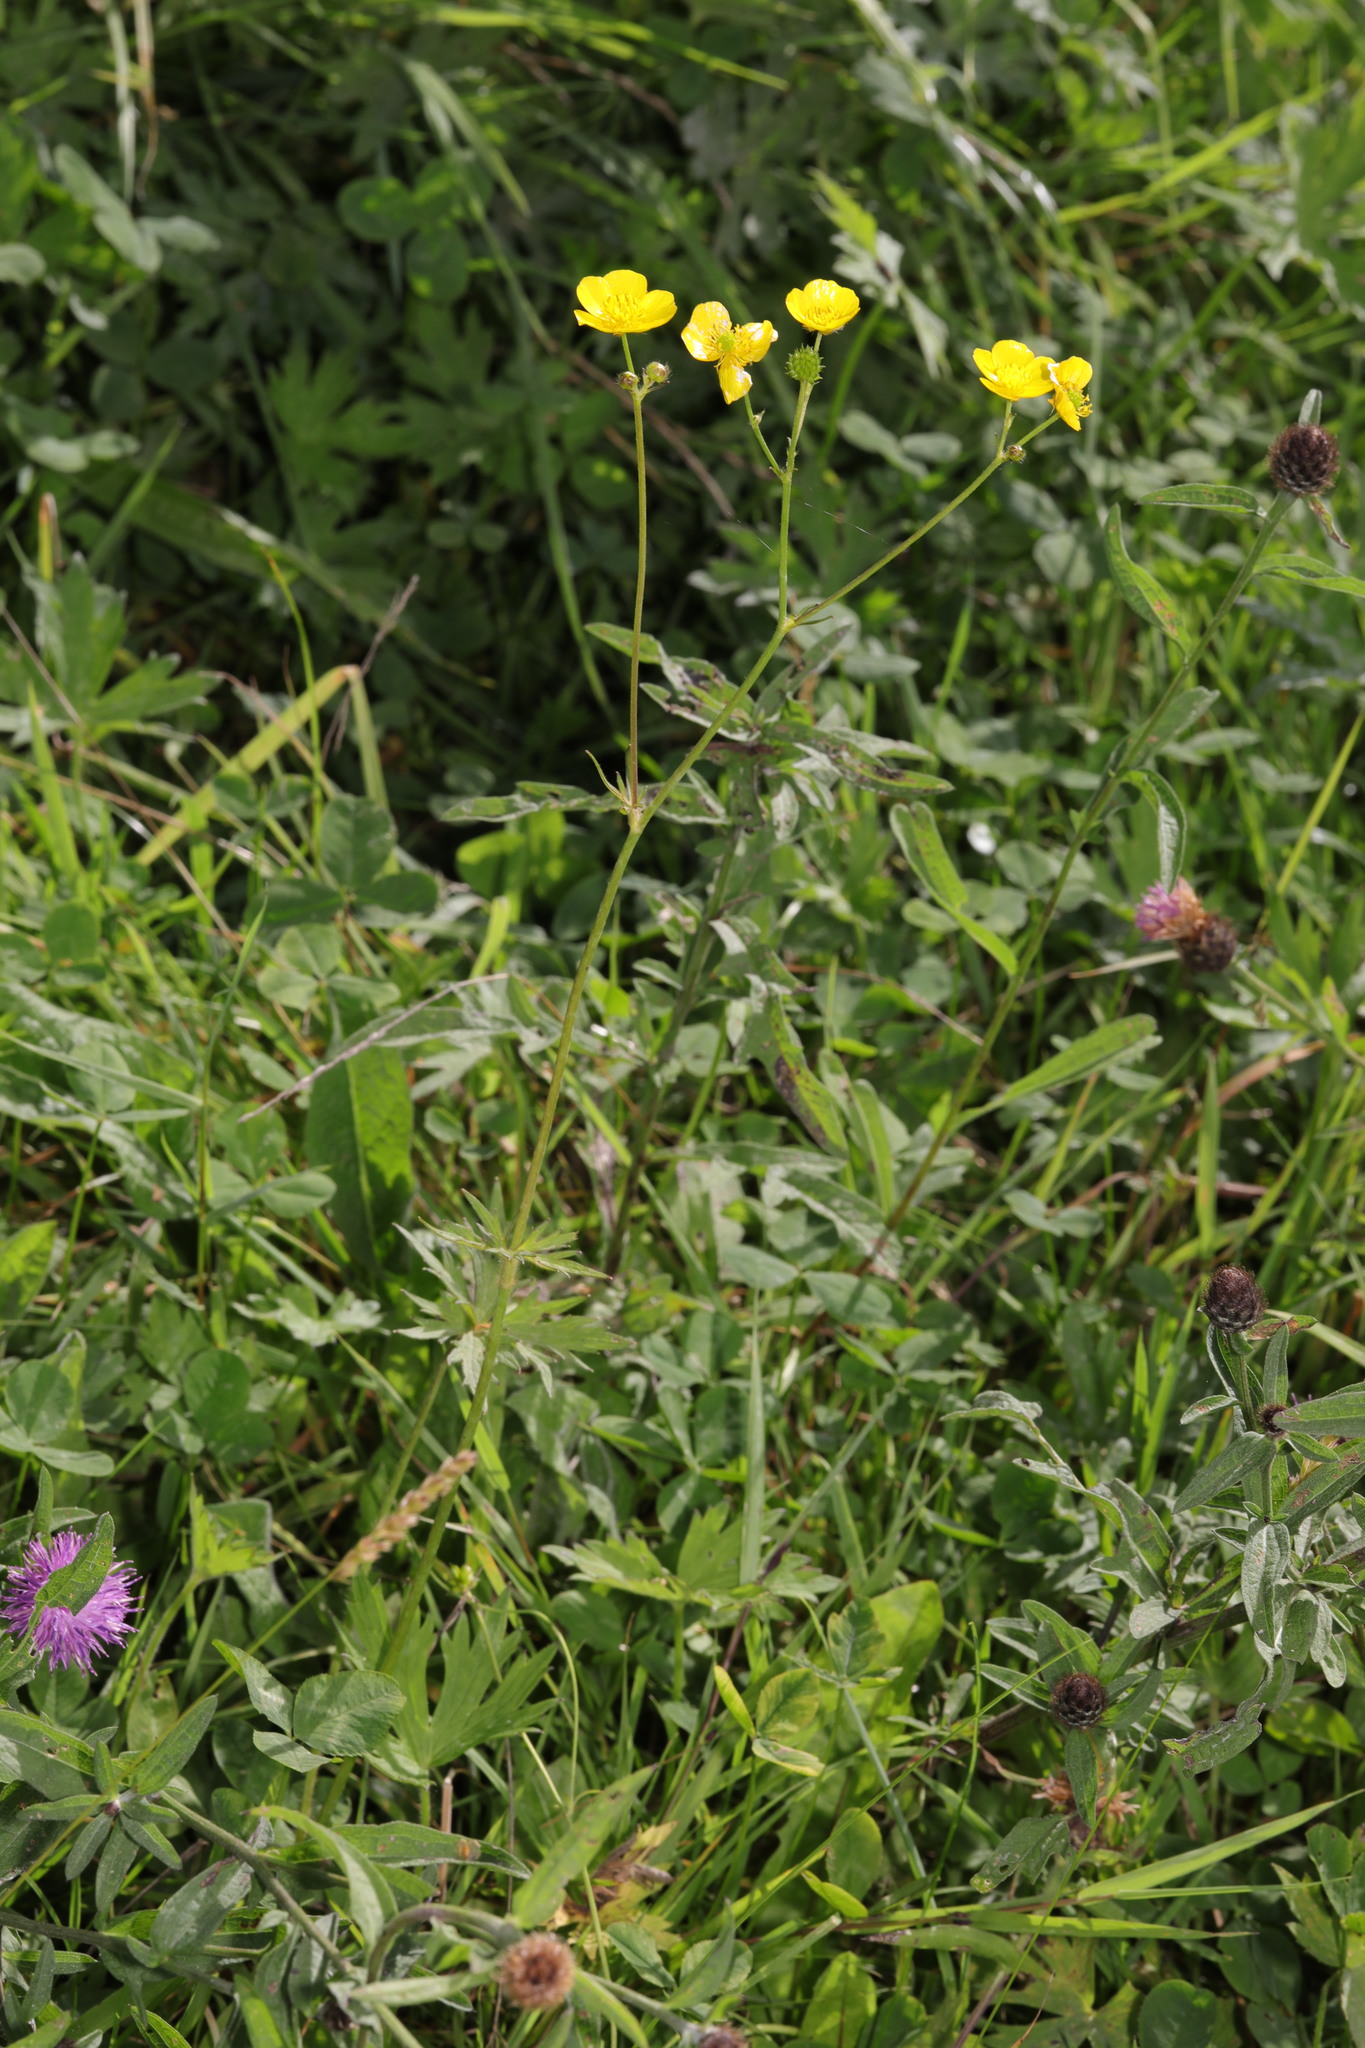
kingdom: Plantae
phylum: Tracheophyta
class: Magnoliopsida
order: Ranunculales
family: Ranunculaceae
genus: Ranunculus
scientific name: Ranunculus acris
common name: Meadow buttercup
